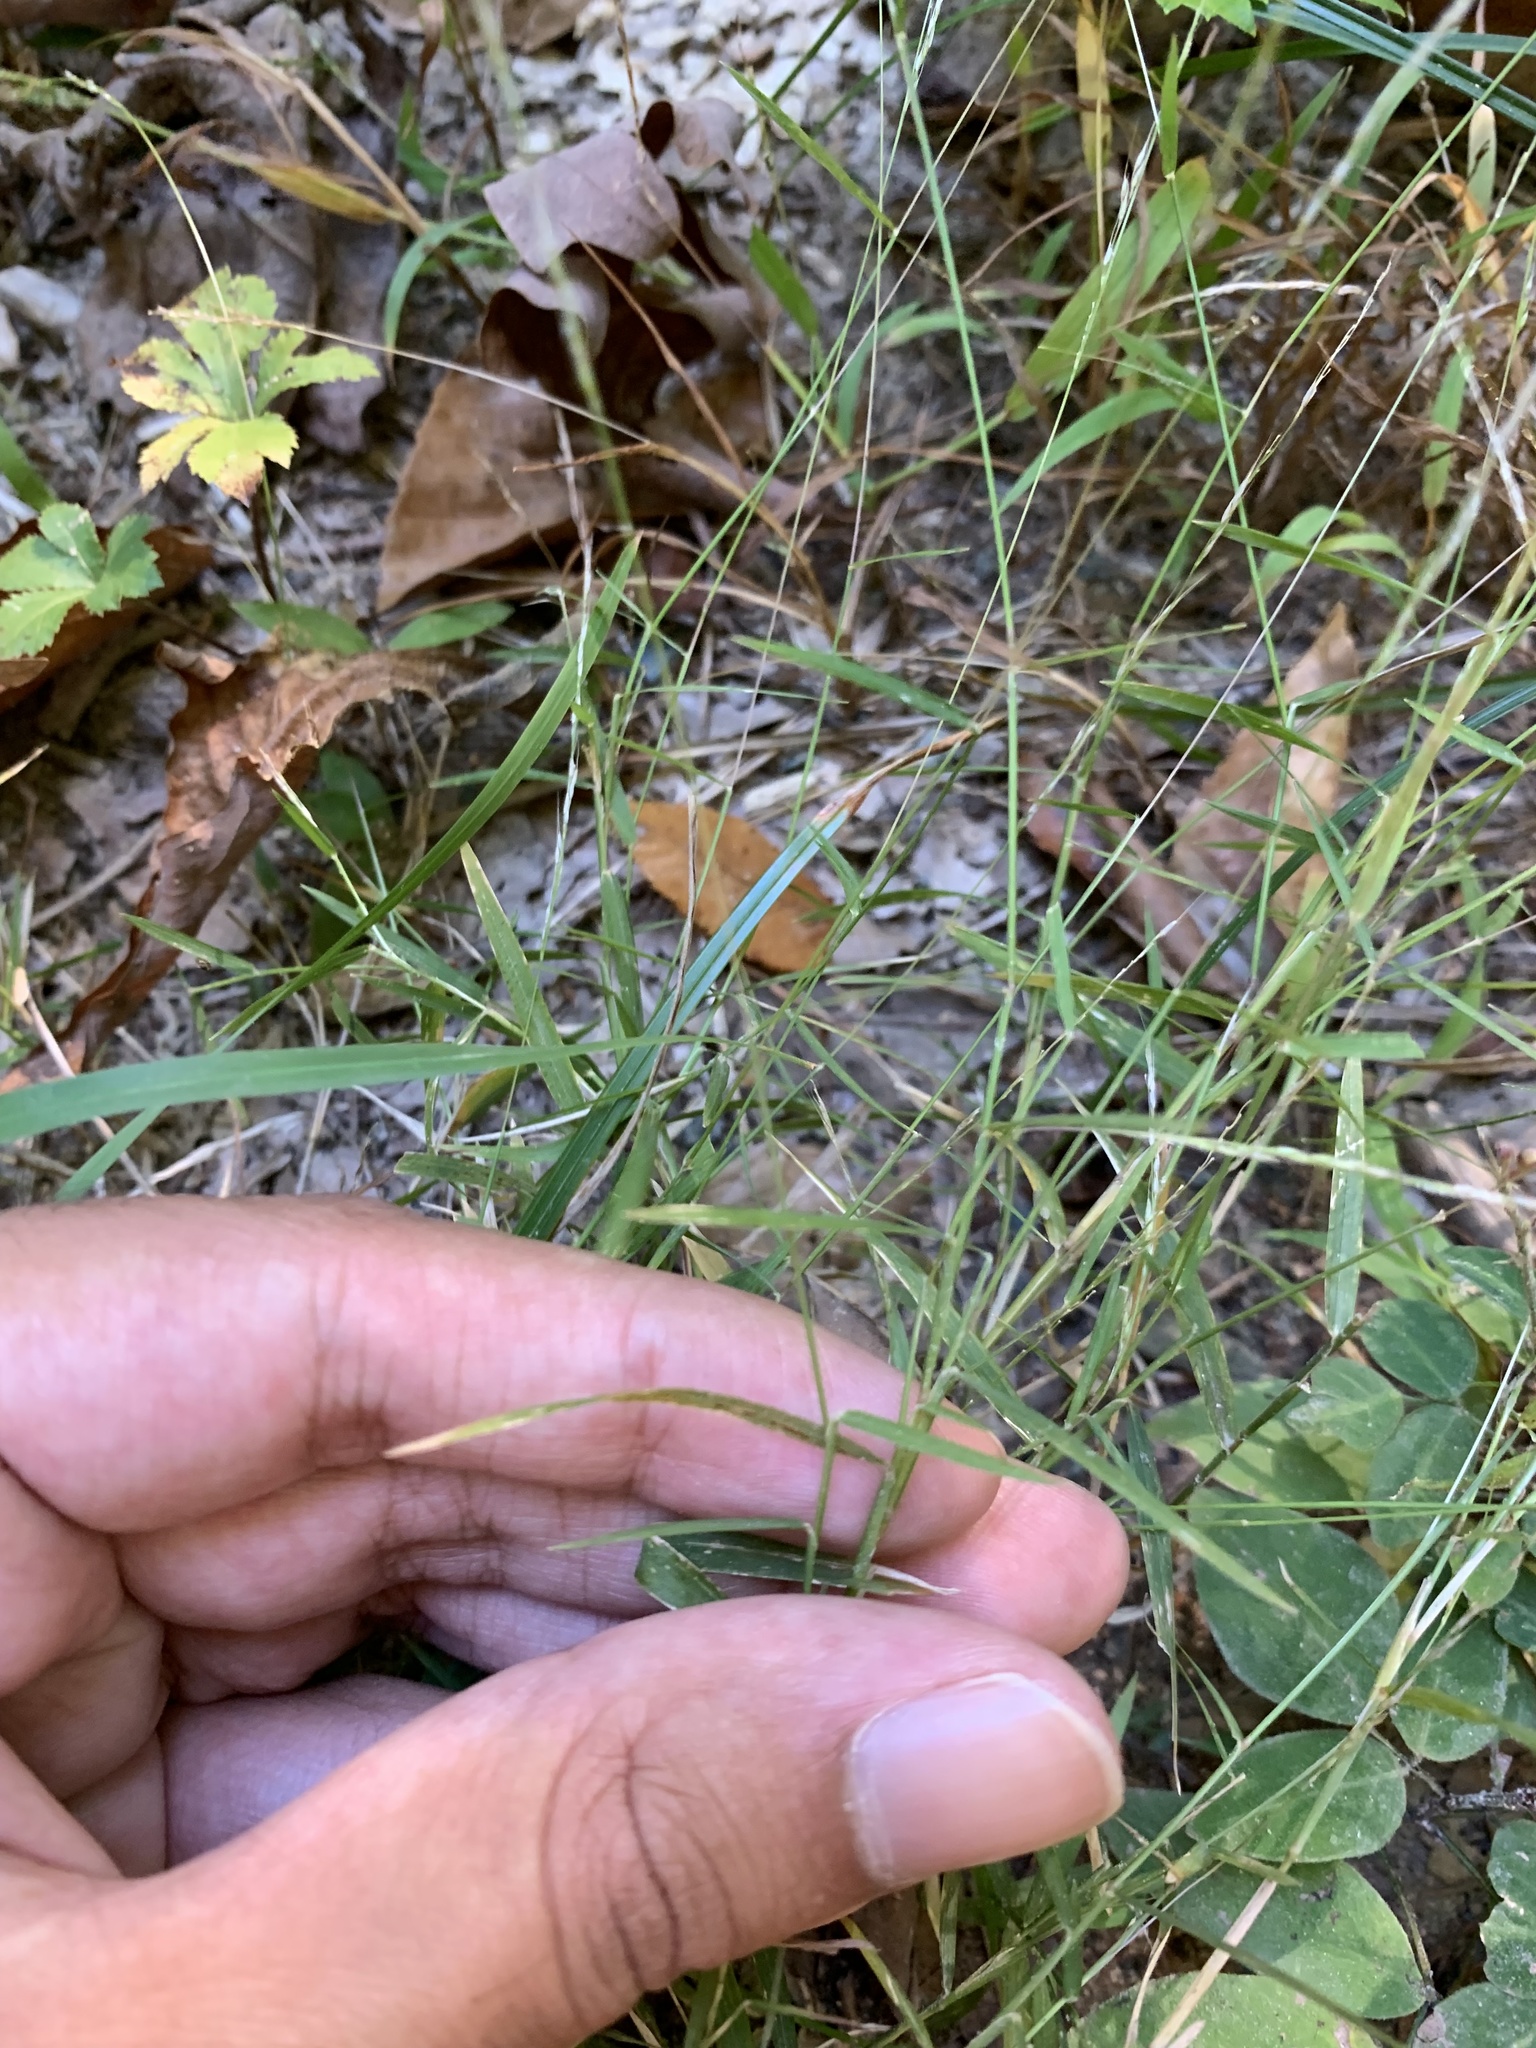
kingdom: Plantae
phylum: Tracheophyta
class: Liliopsida
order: Poales
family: Poaceae
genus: Muhlenbergia
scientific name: Muhlenbergia schreberi
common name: Nimblewill
